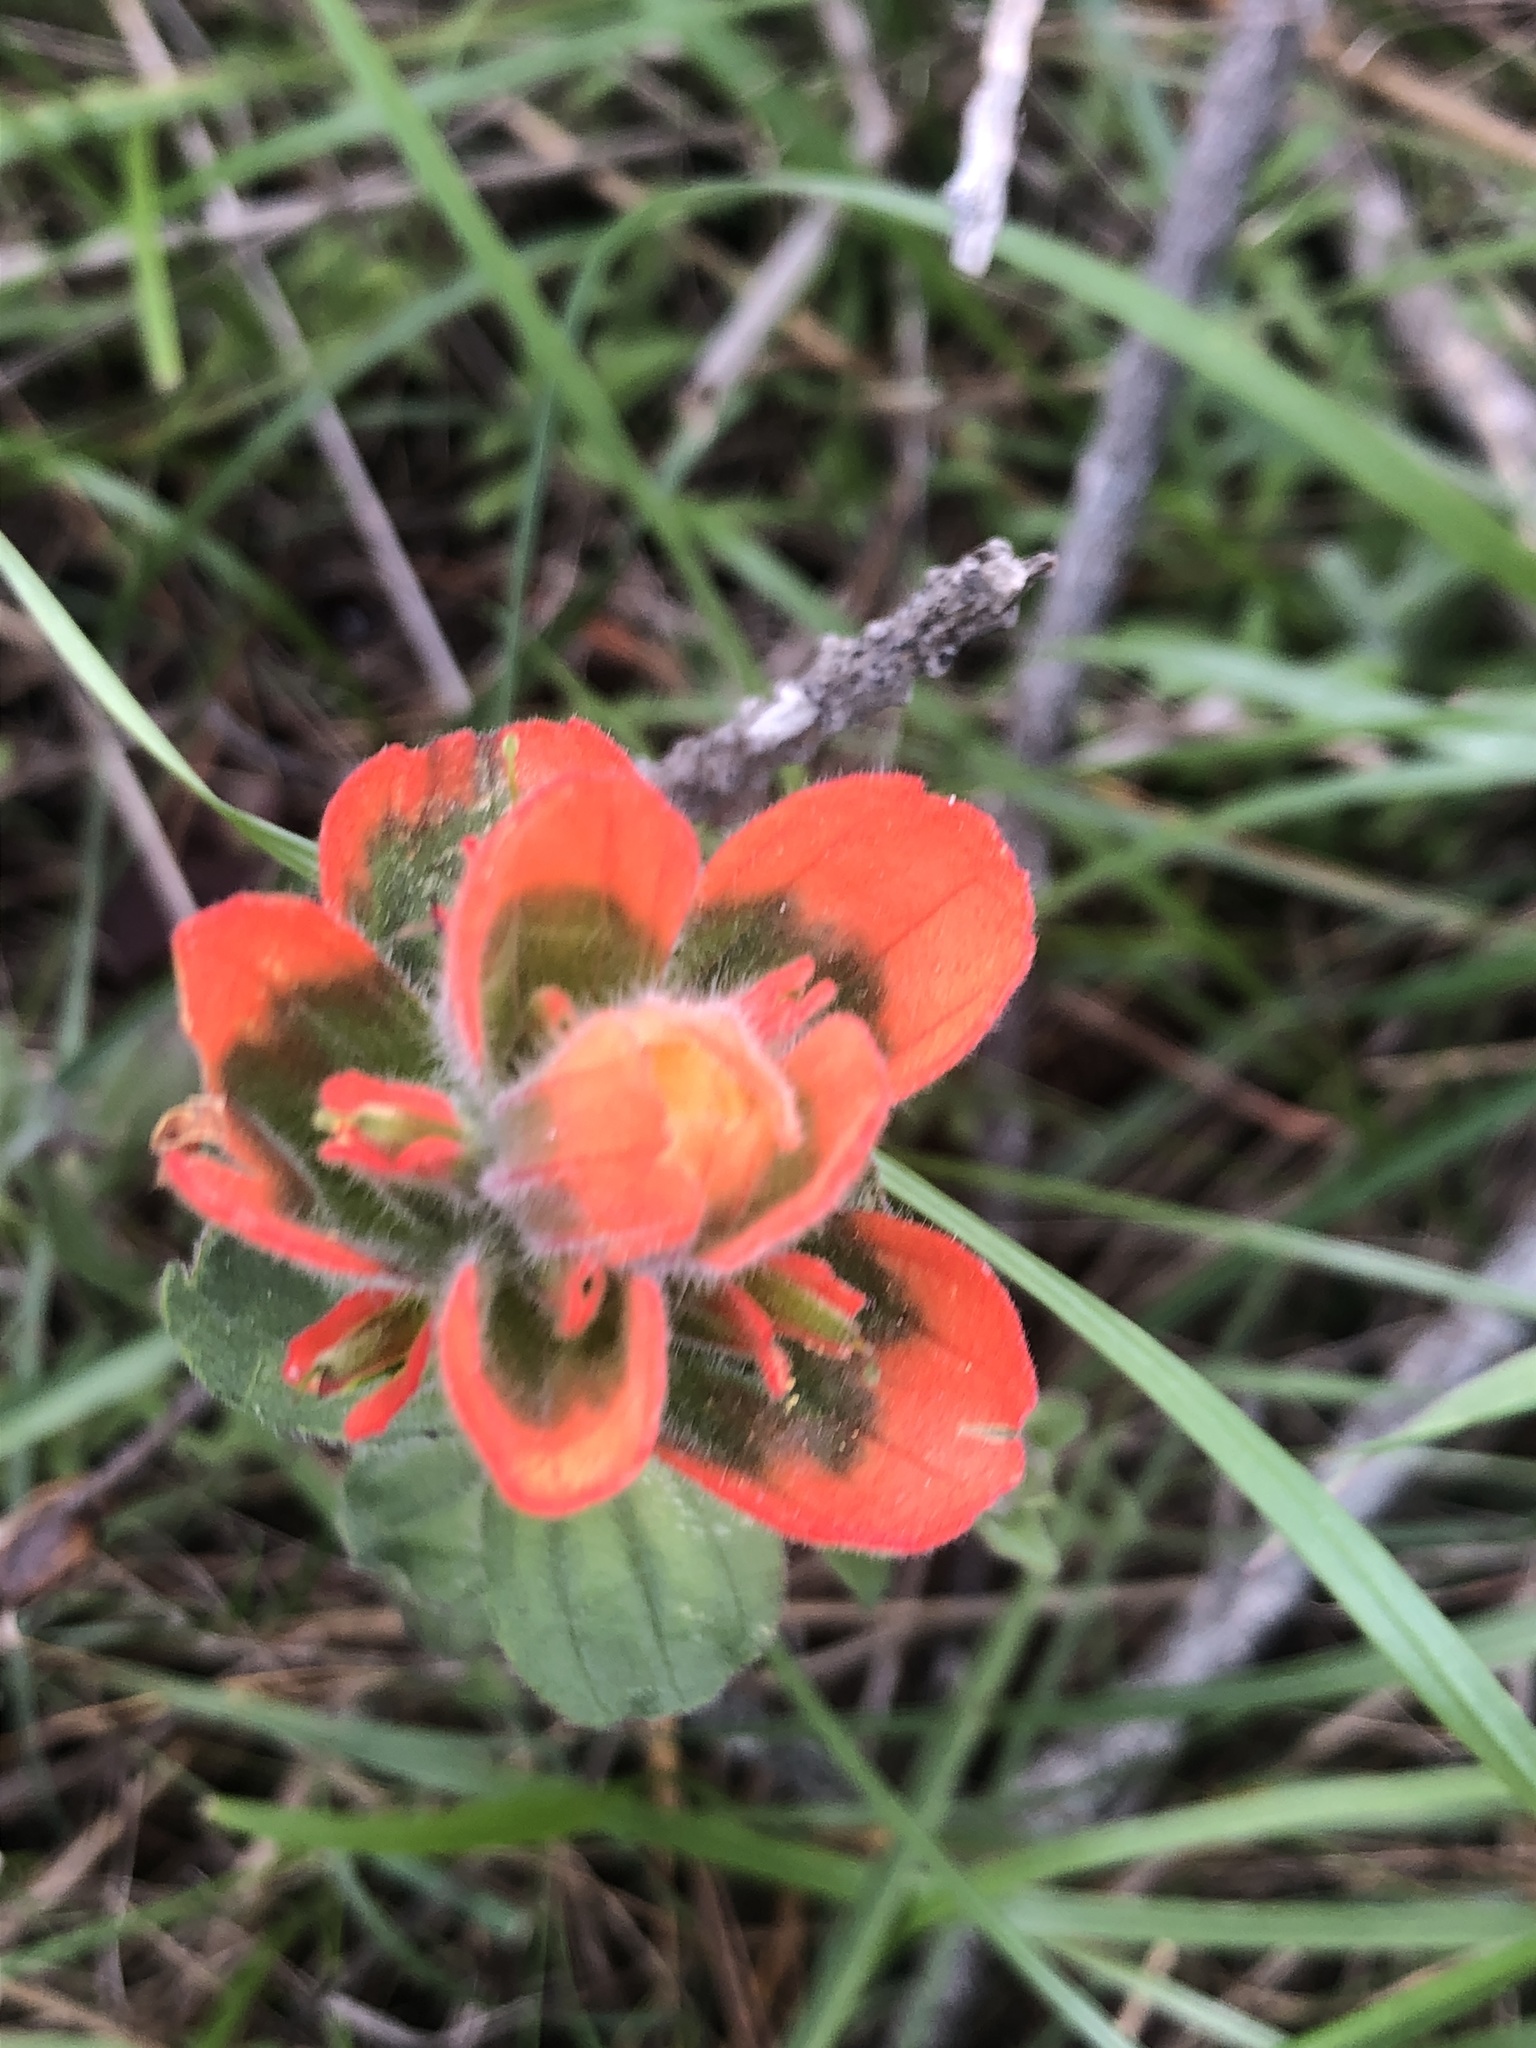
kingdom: Plantae
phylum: Tracheophyta
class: Magnoliopsida
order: Lamiales
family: Orobanchaceae
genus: Castilleja
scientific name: Castilleja latifolia
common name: Monterey indian paintbrush
